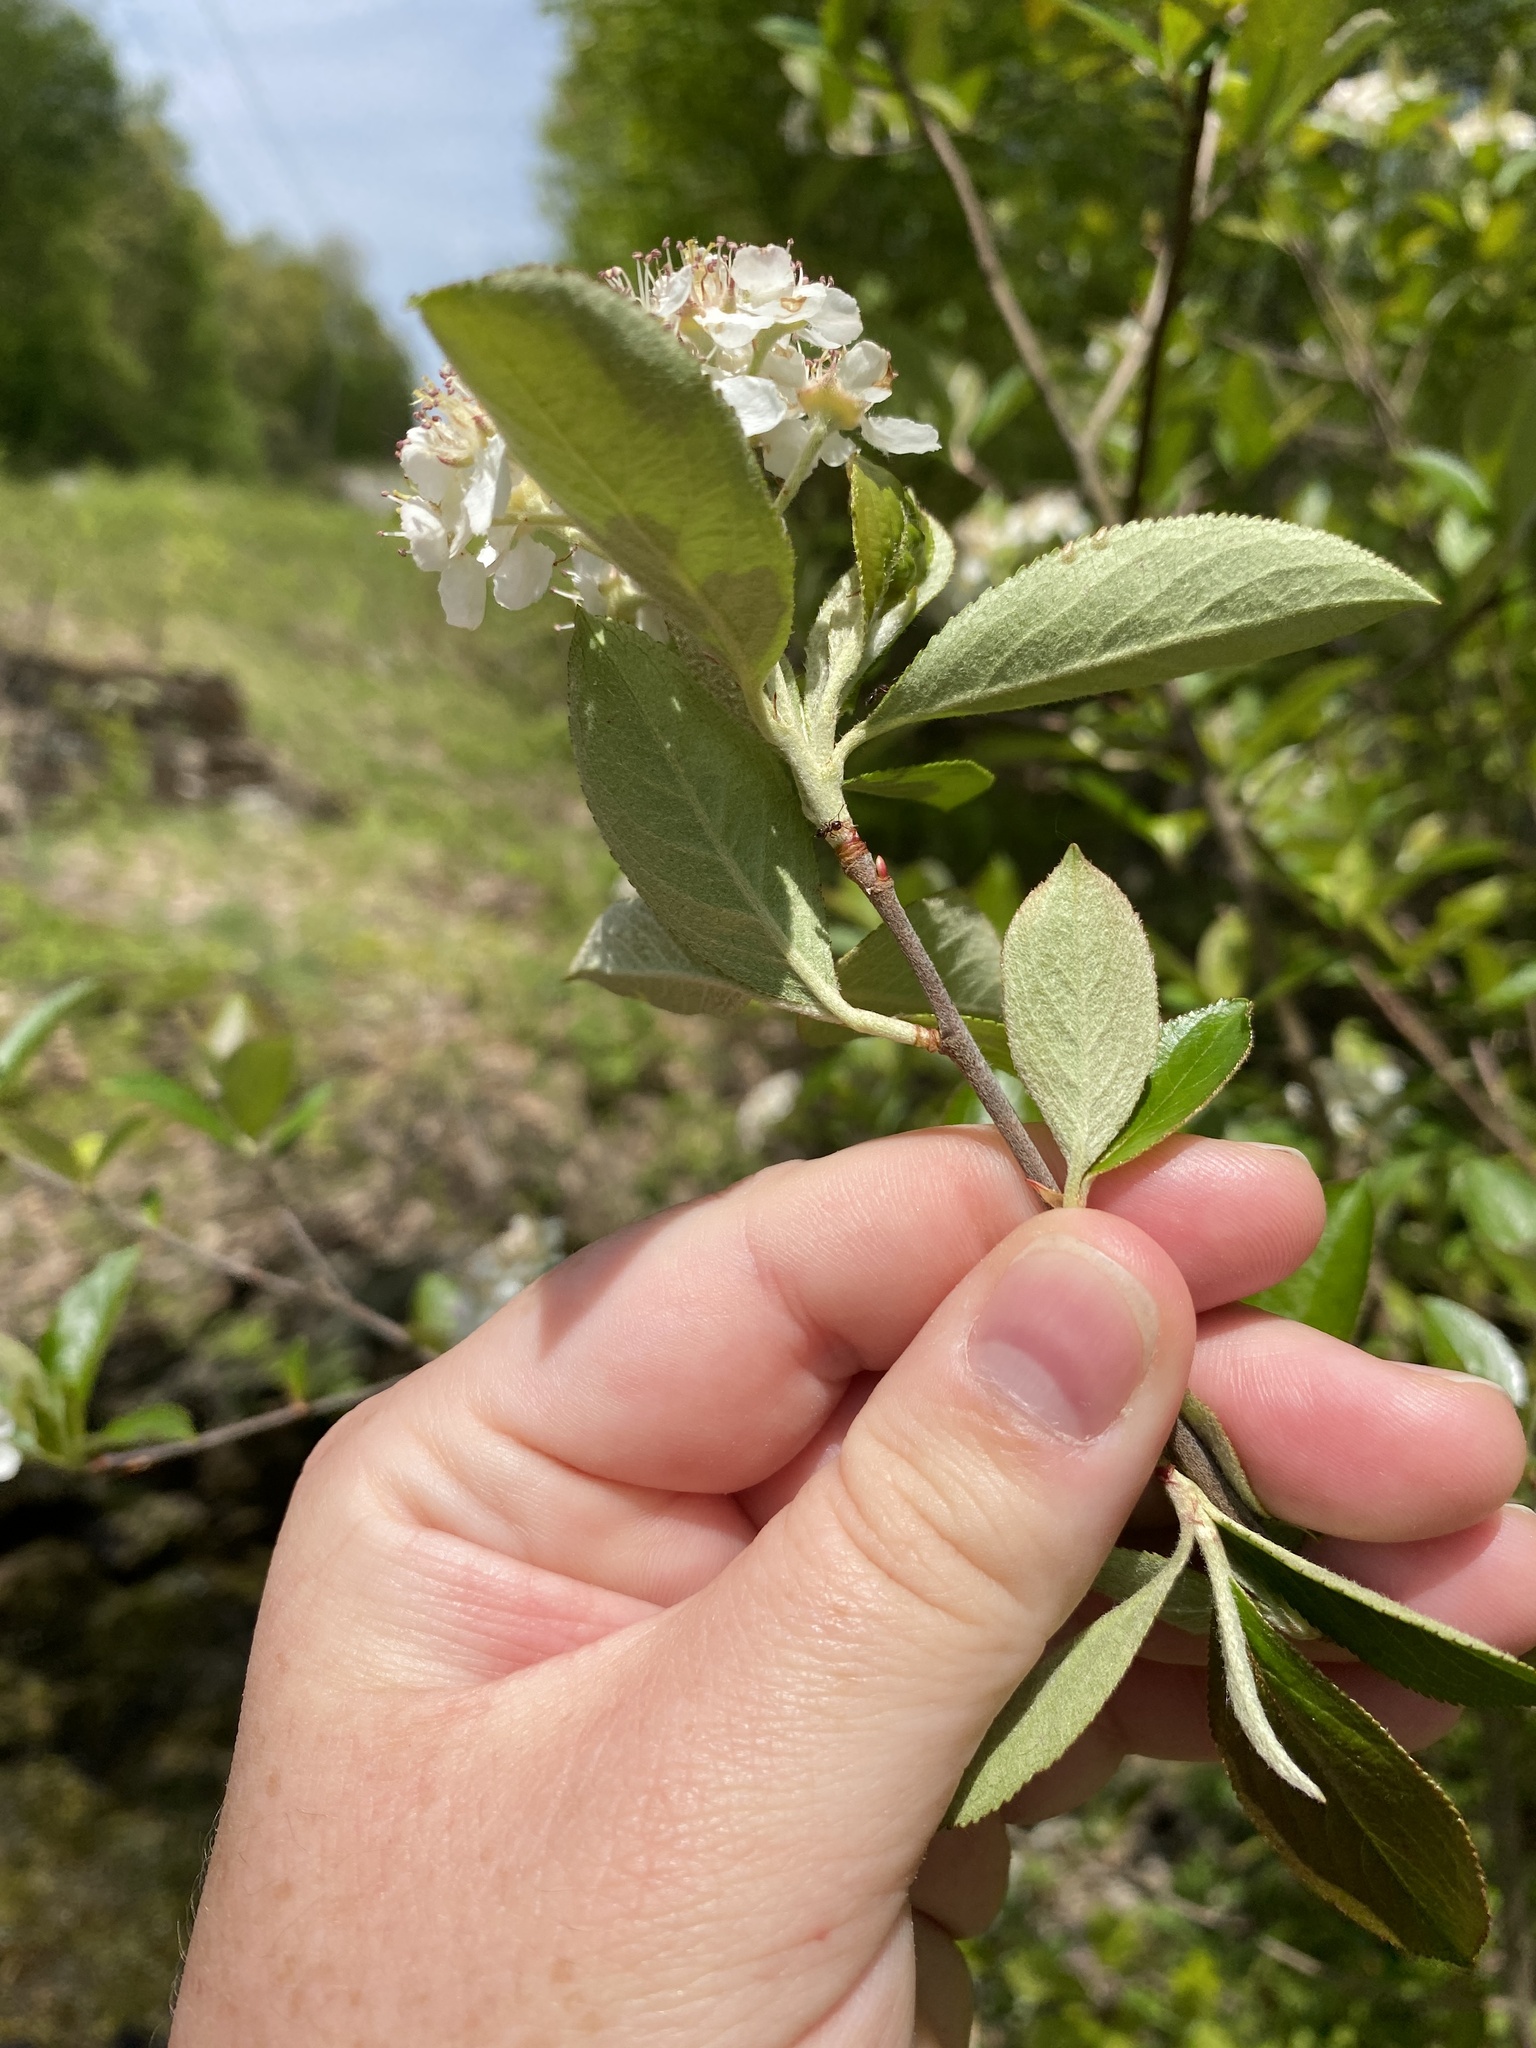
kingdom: Plantae
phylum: Tracheophyta
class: Magnoliopsida
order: Rosales
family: Rosaceae
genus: Aronia
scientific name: Aronia arbutifolia
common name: Red chokeberry
